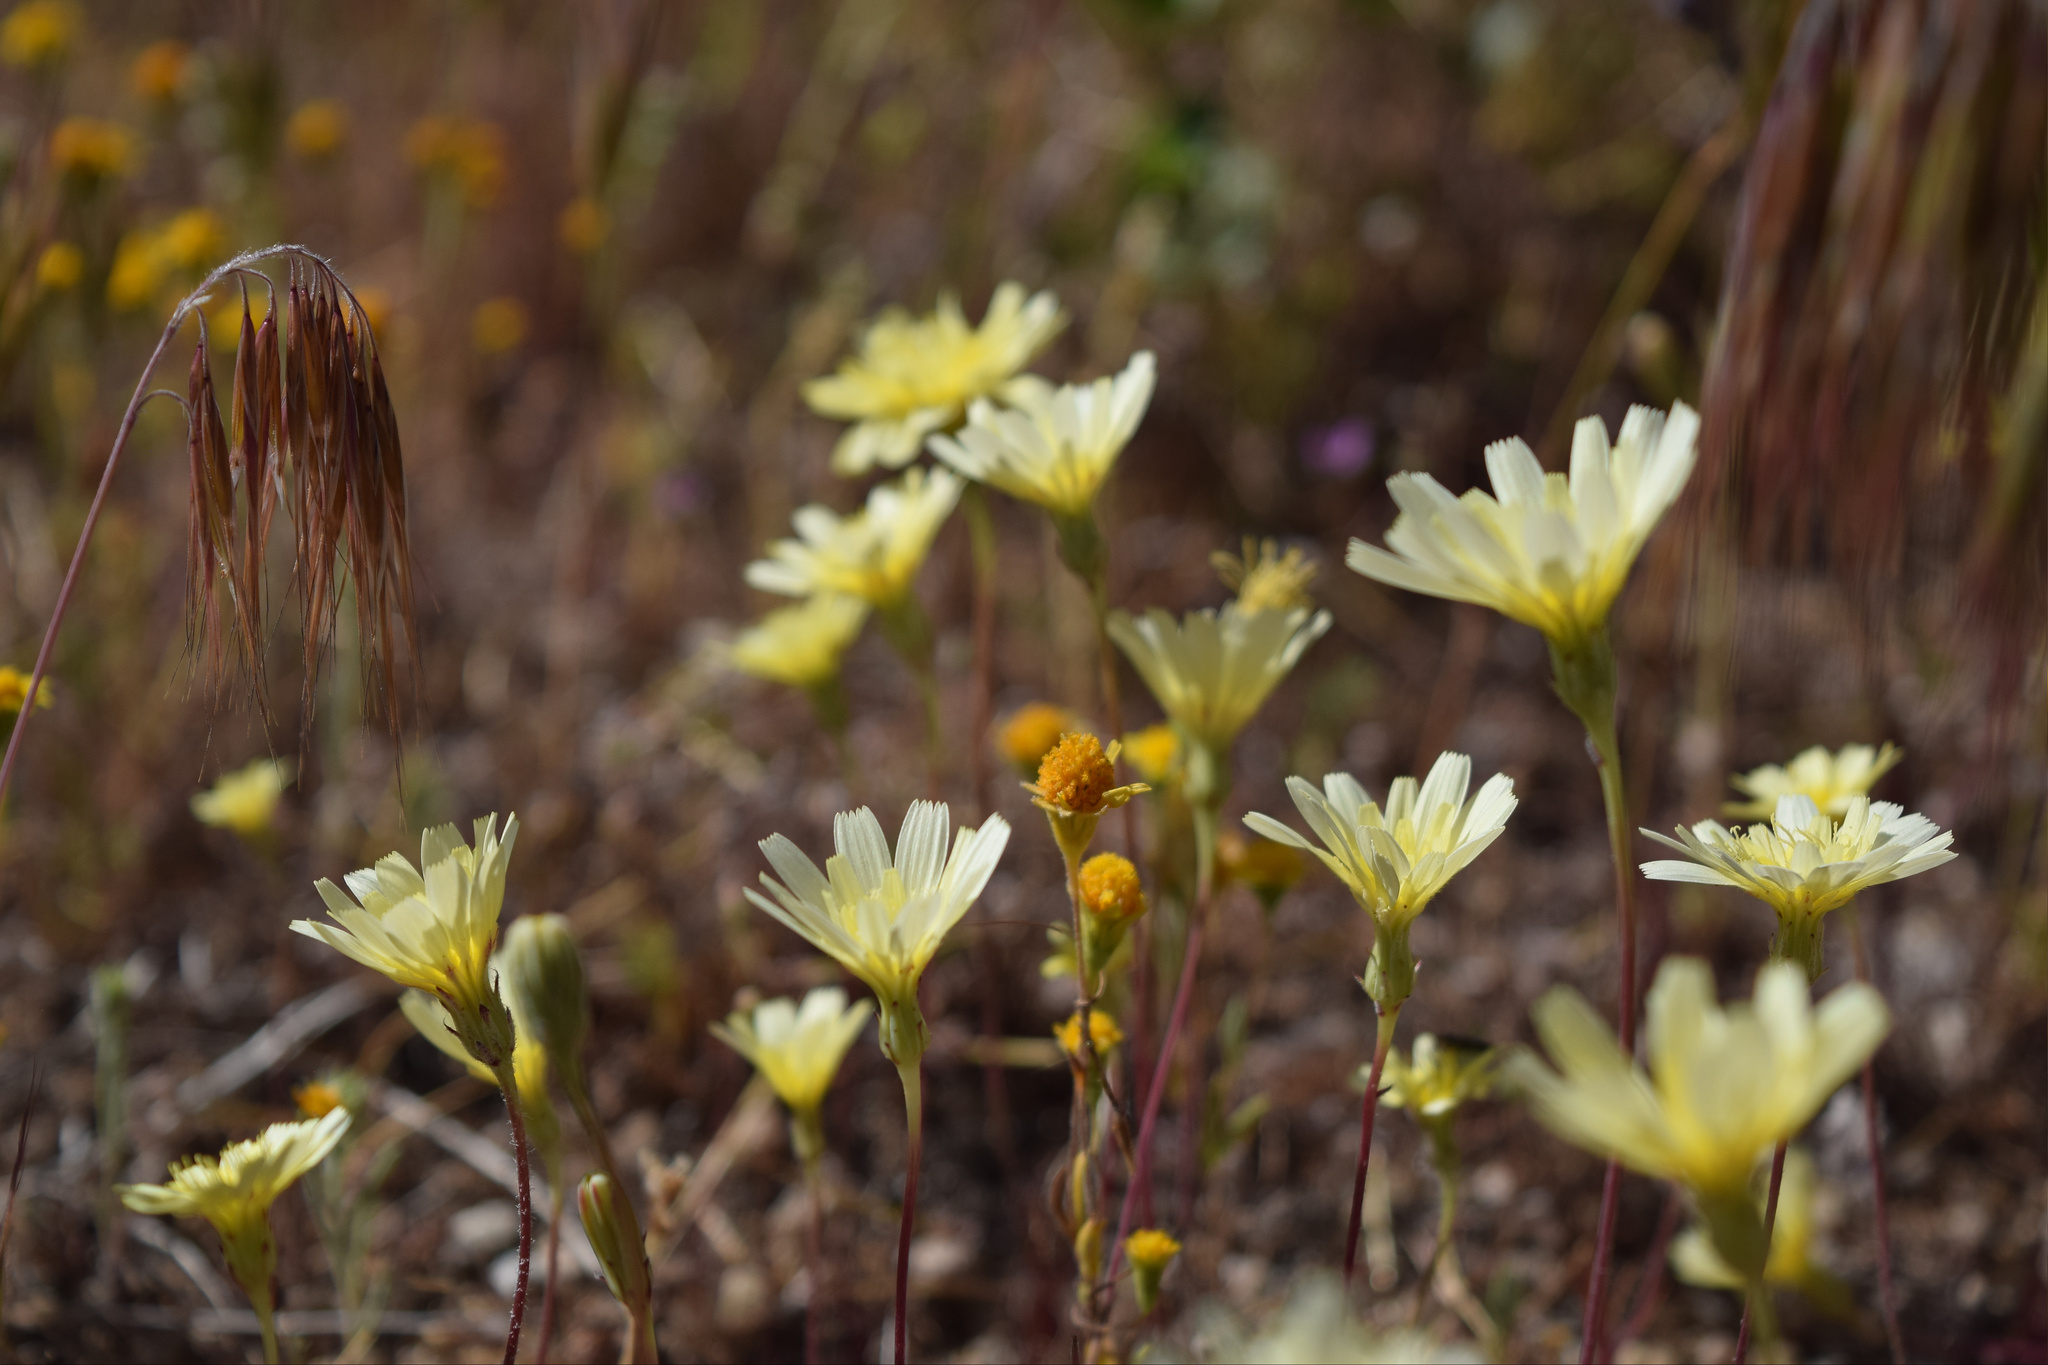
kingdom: Plantae
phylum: Tracheophyta
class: Magnoliopsida
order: Asterales
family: Asteraceae
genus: Malacothrix
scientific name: Malacothrix glabrata
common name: Smooth desert-dandelion
